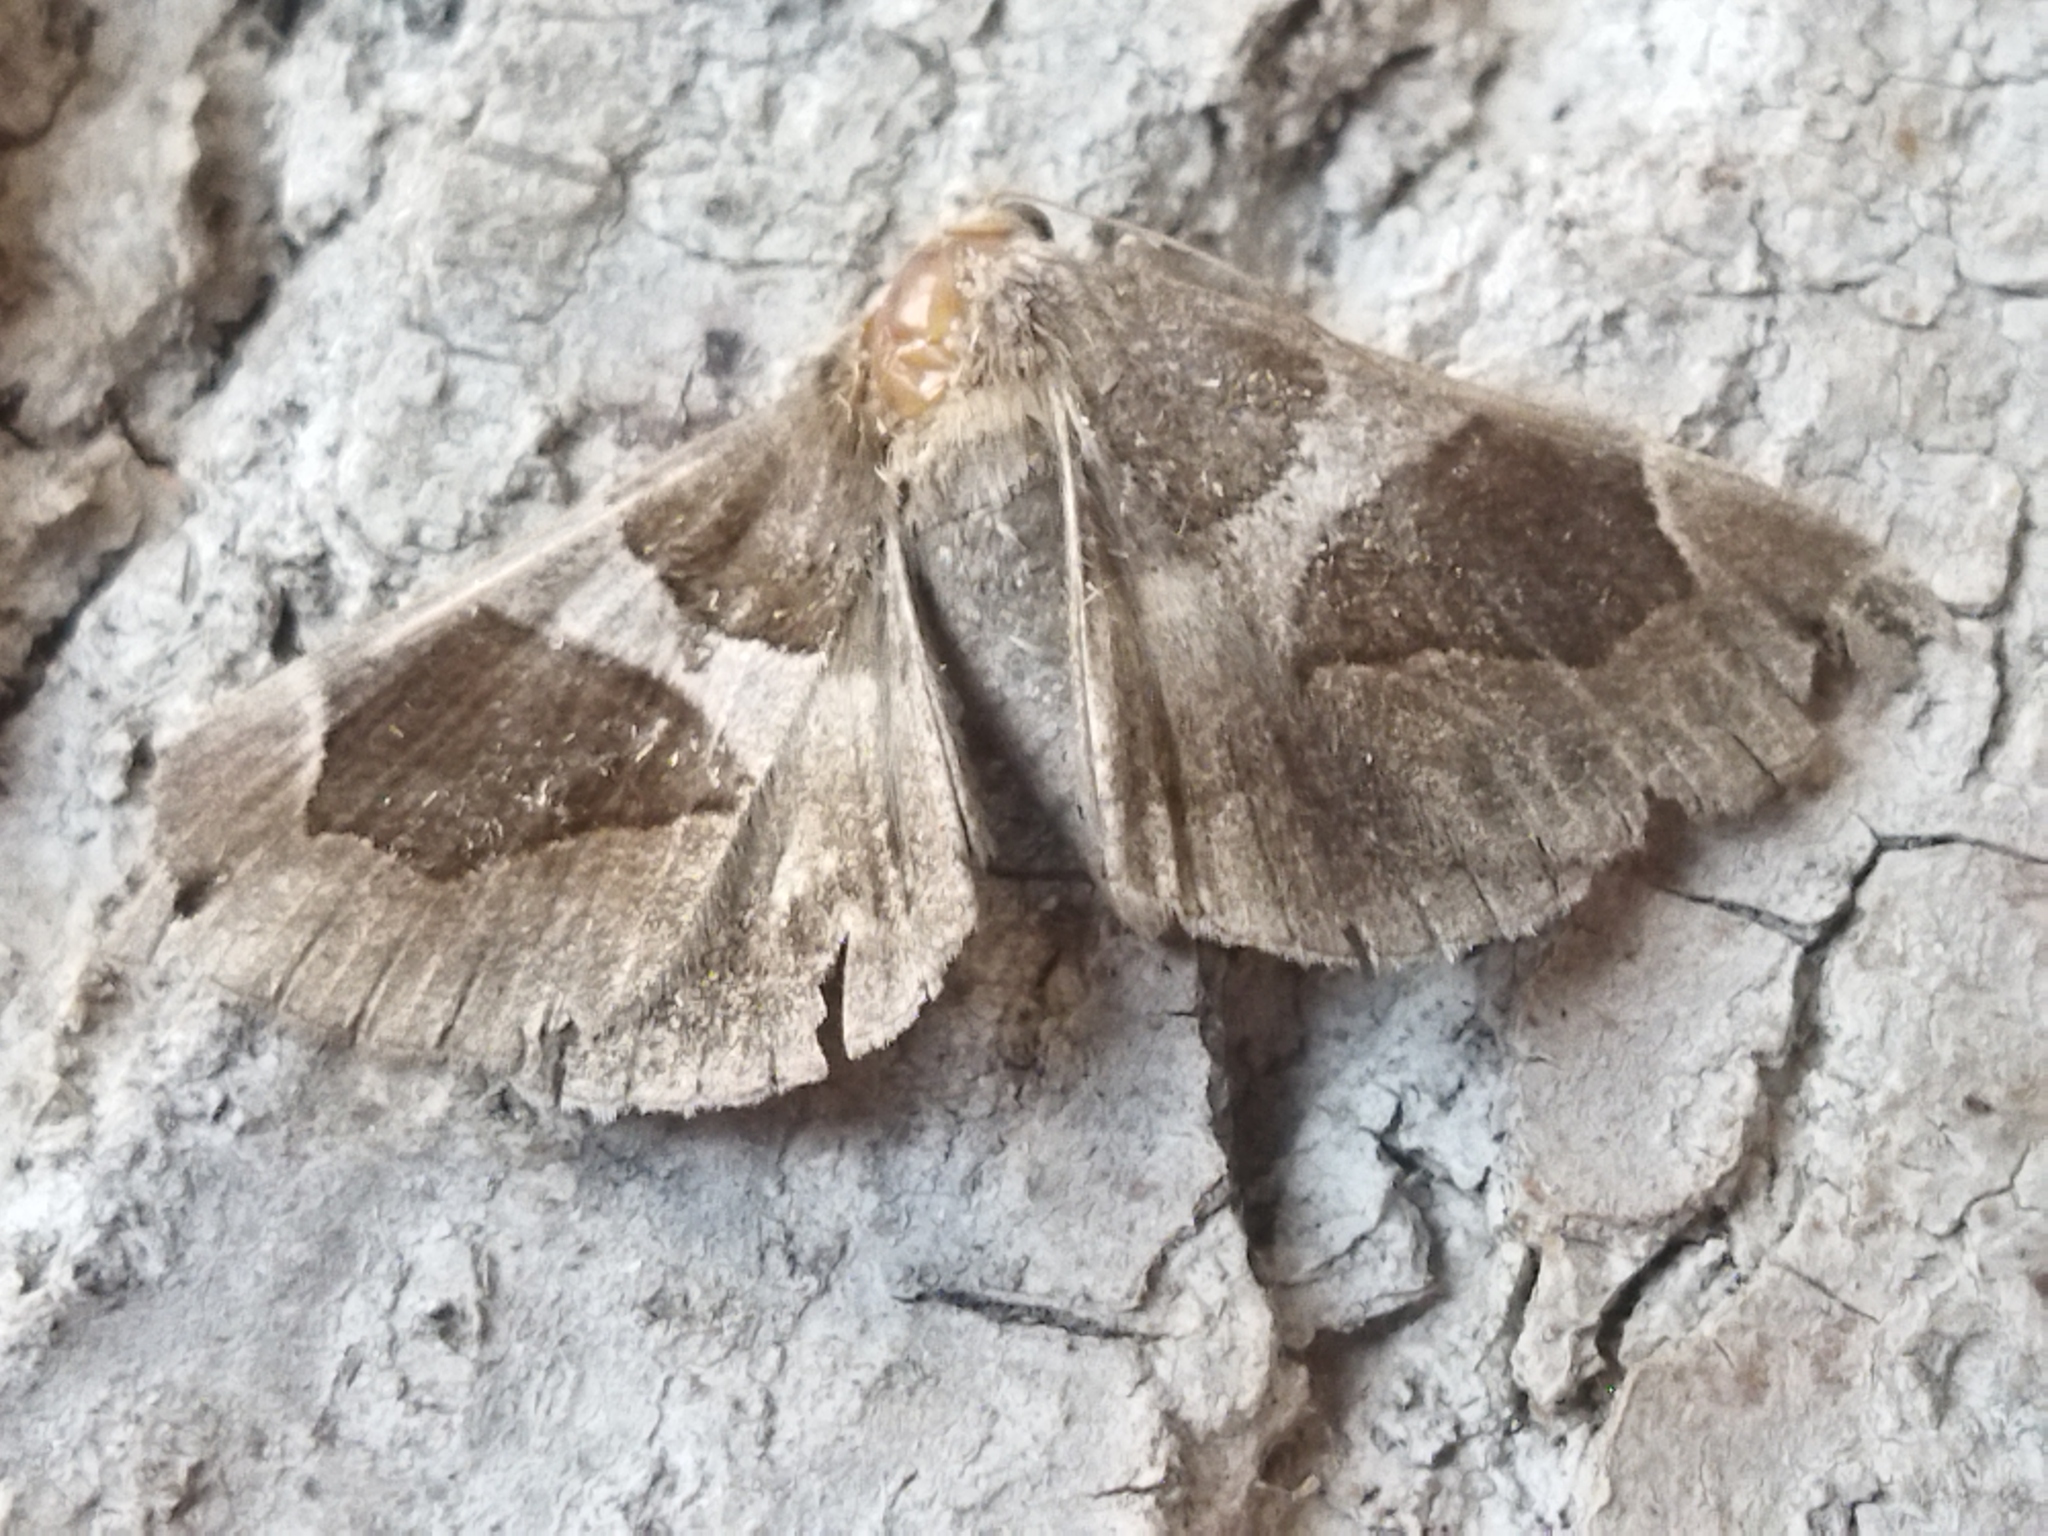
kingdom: Animalia
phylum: Arthropoda
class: Insecta
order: Lepidoptera
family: Erebidae
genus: Dysgonia
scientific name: Dysgonia algira
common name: Passenger
